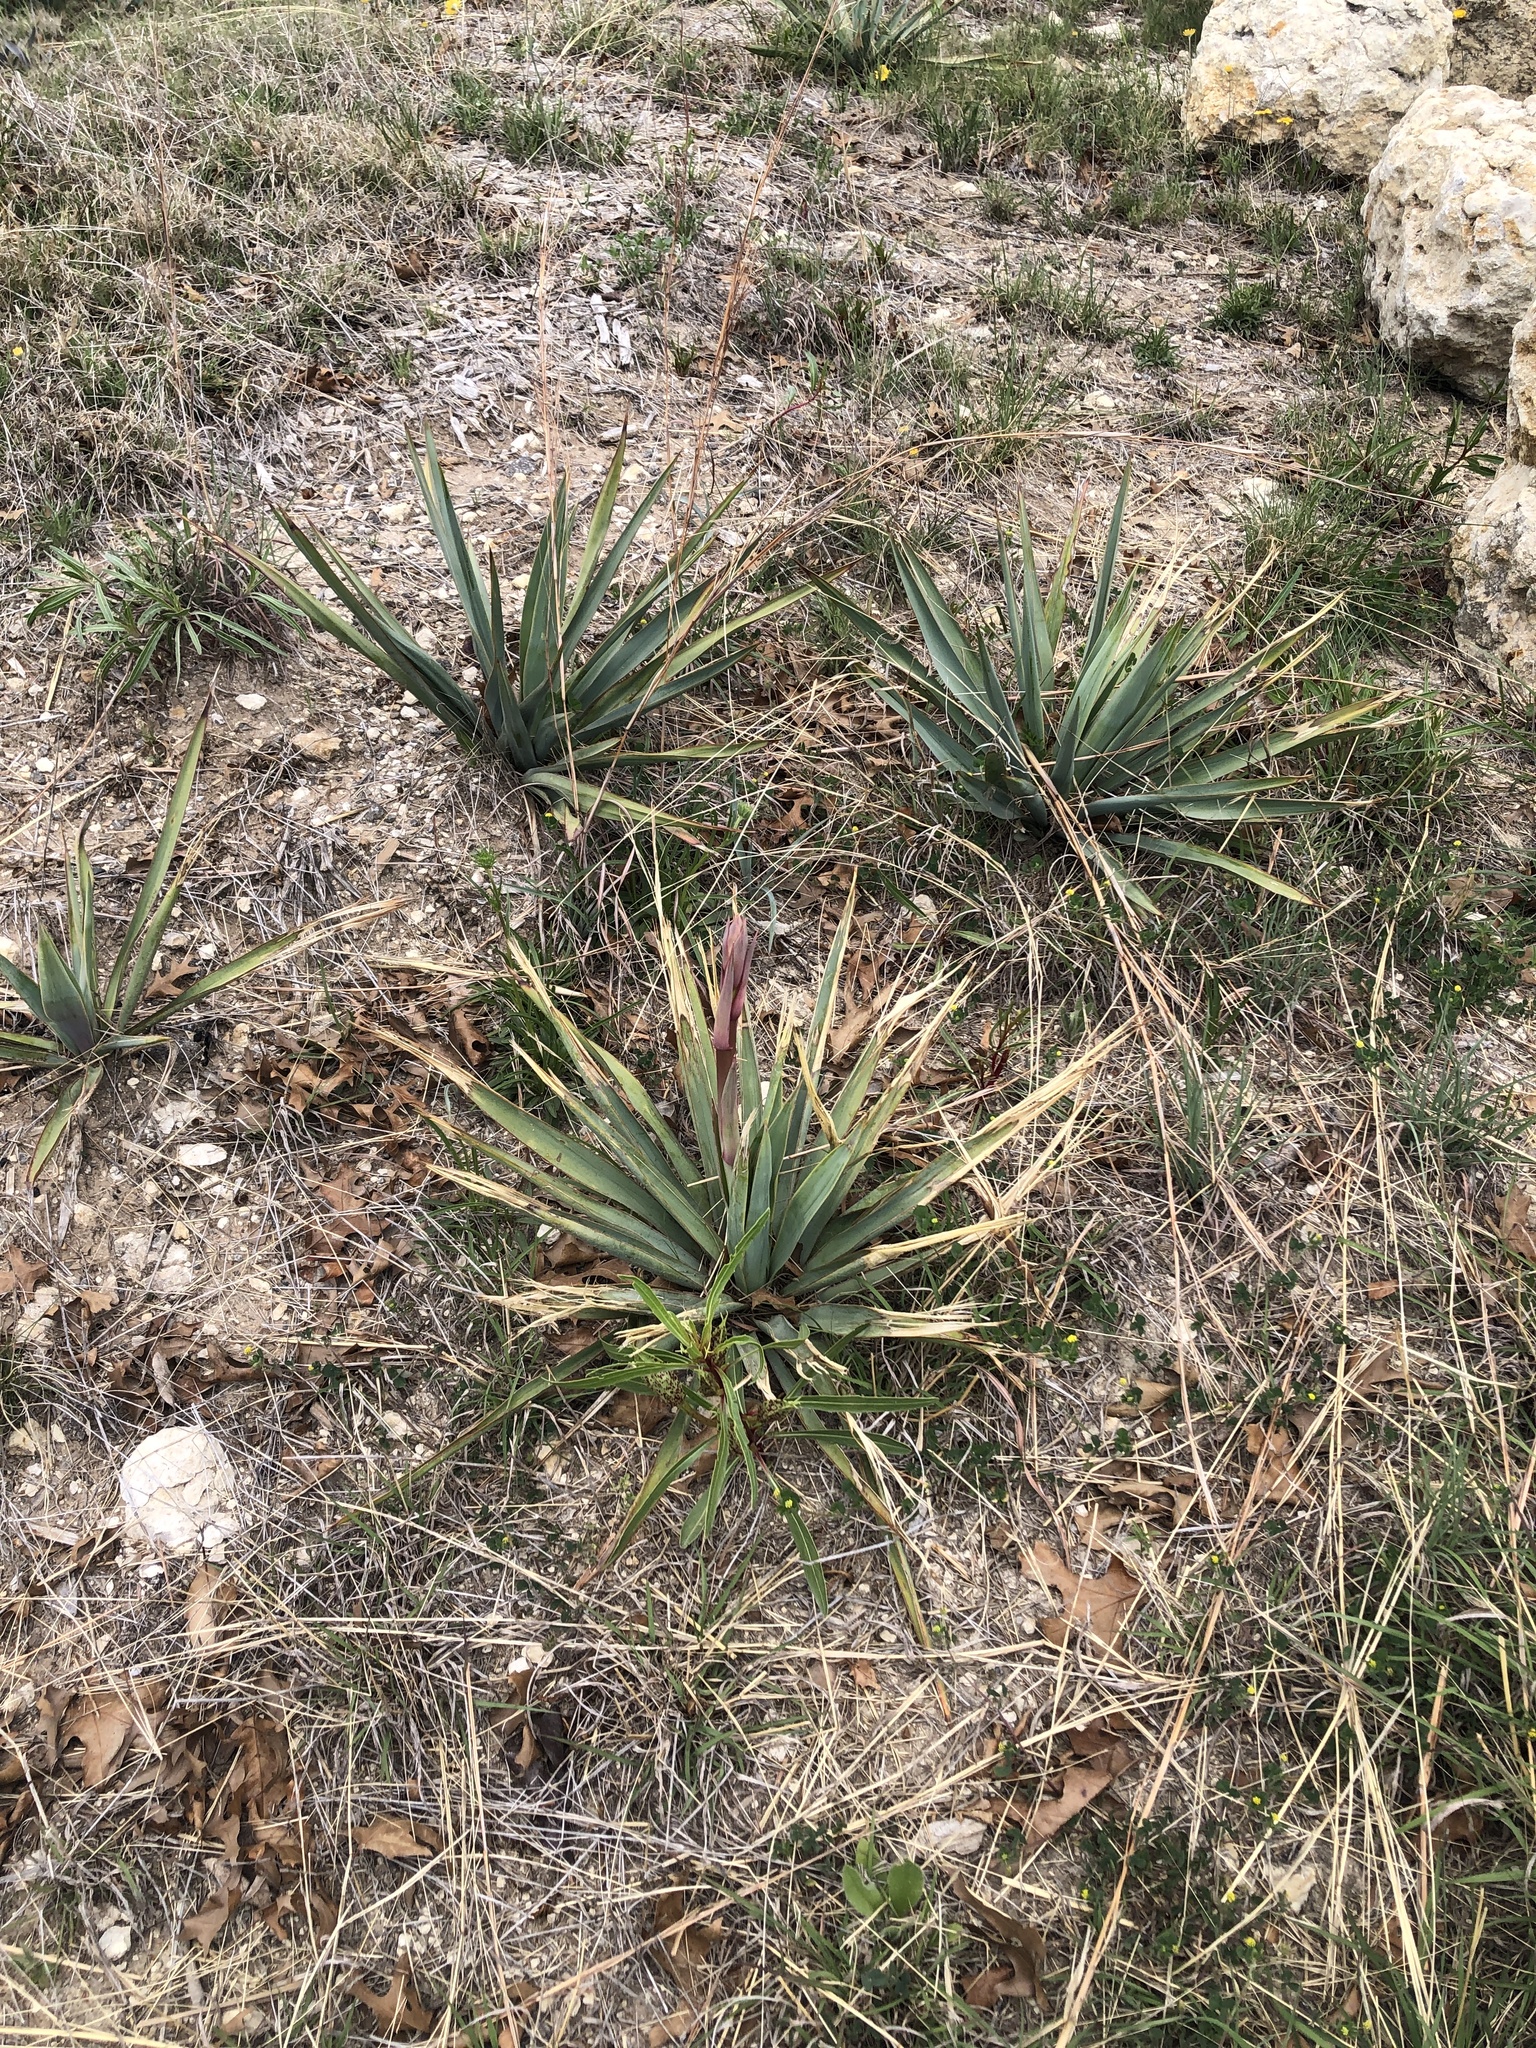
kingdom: Plantae
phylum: Tracheophyta
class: Liliopsida
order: Asparagales
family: Asparagaceae
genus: Yucca
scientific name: Yucca pallida
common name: Pale leaf yucca
